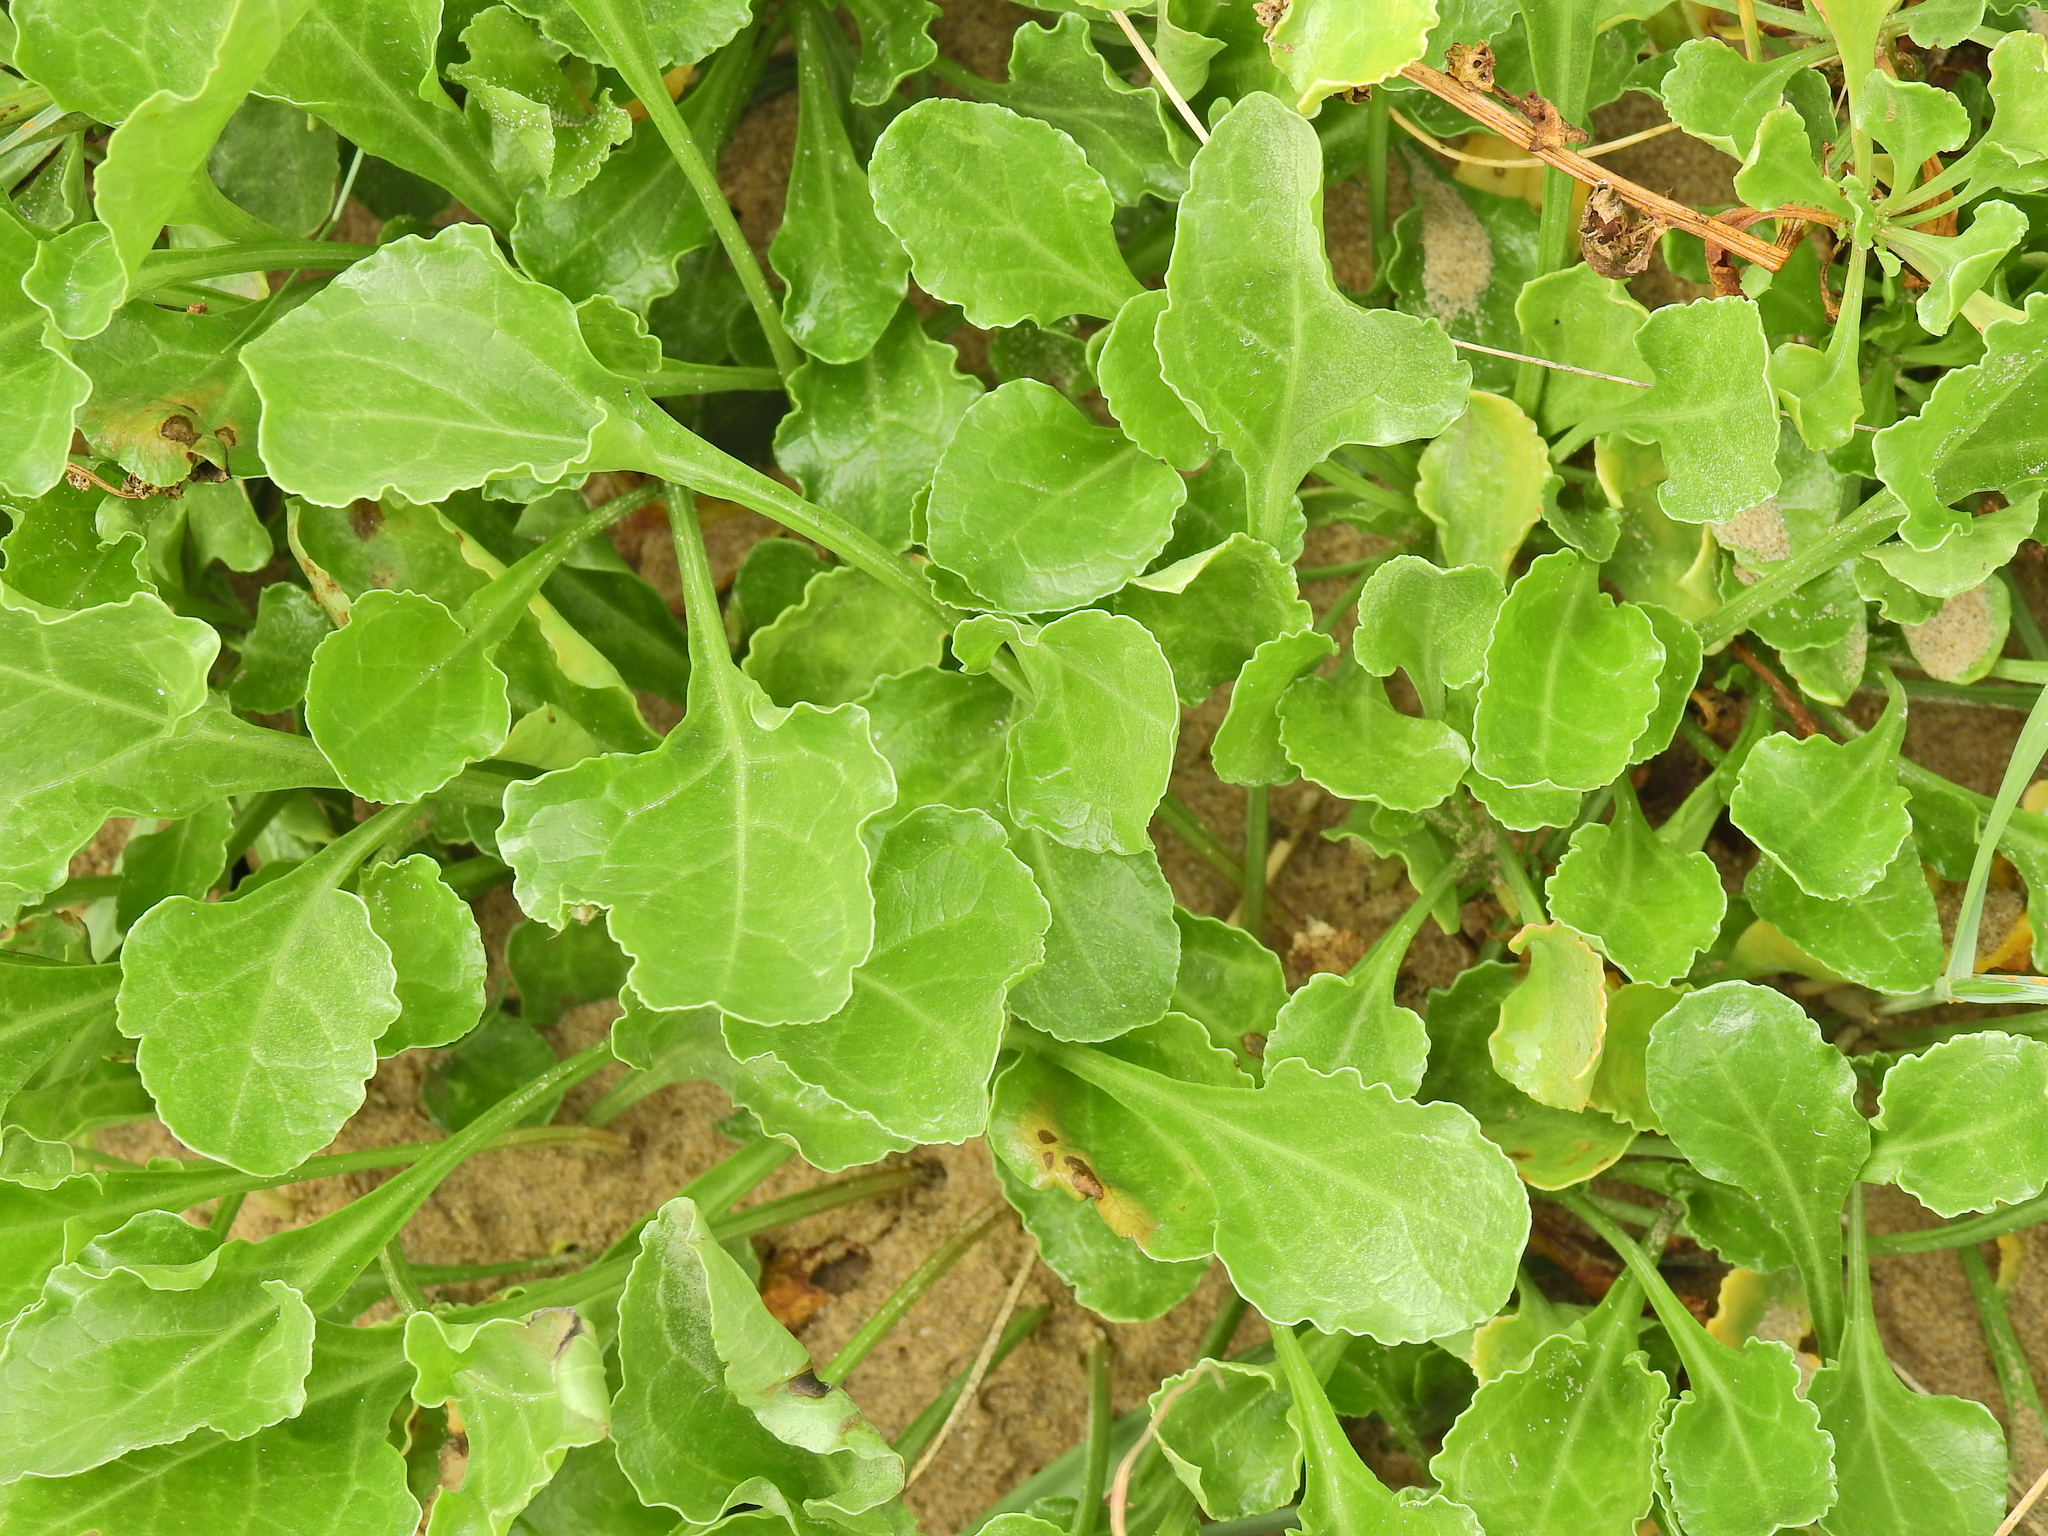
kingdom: Plantae
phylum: Tracheophyta
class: Magnoliopsida
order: Caryophyllales
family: Amaranthaceae
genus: Beta
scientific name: Beta vulgaris
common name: Beet
